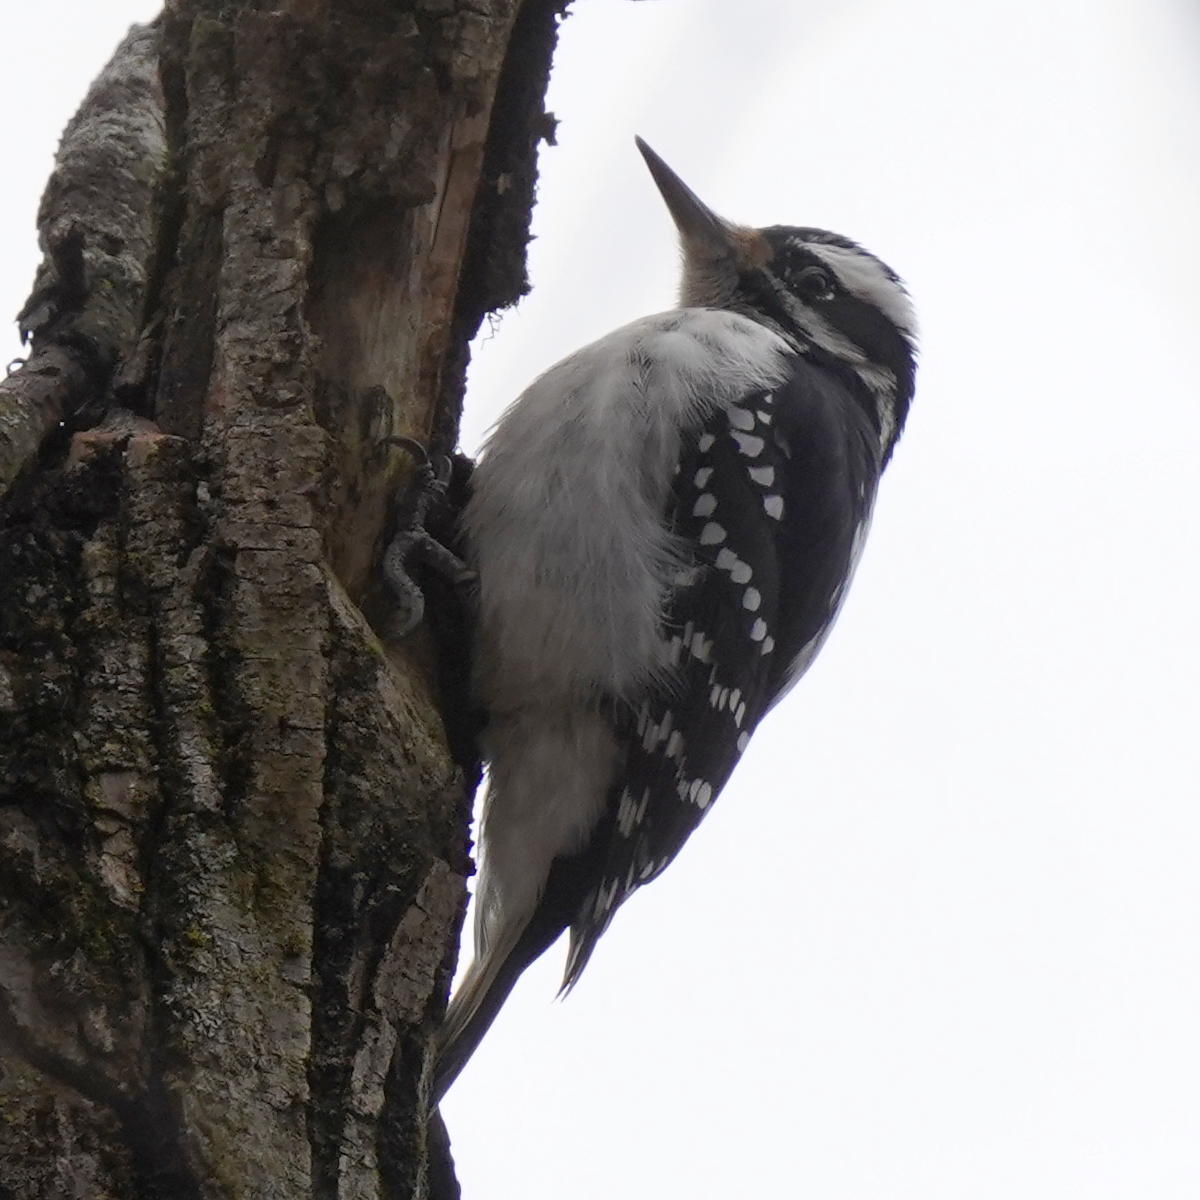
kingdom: Animalia
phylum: Chordata
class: Aves
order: Piciformes
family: Picidae
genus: Leuconotopicus
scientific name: Leuconotopicus villosus
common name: Hairy woodpecker
